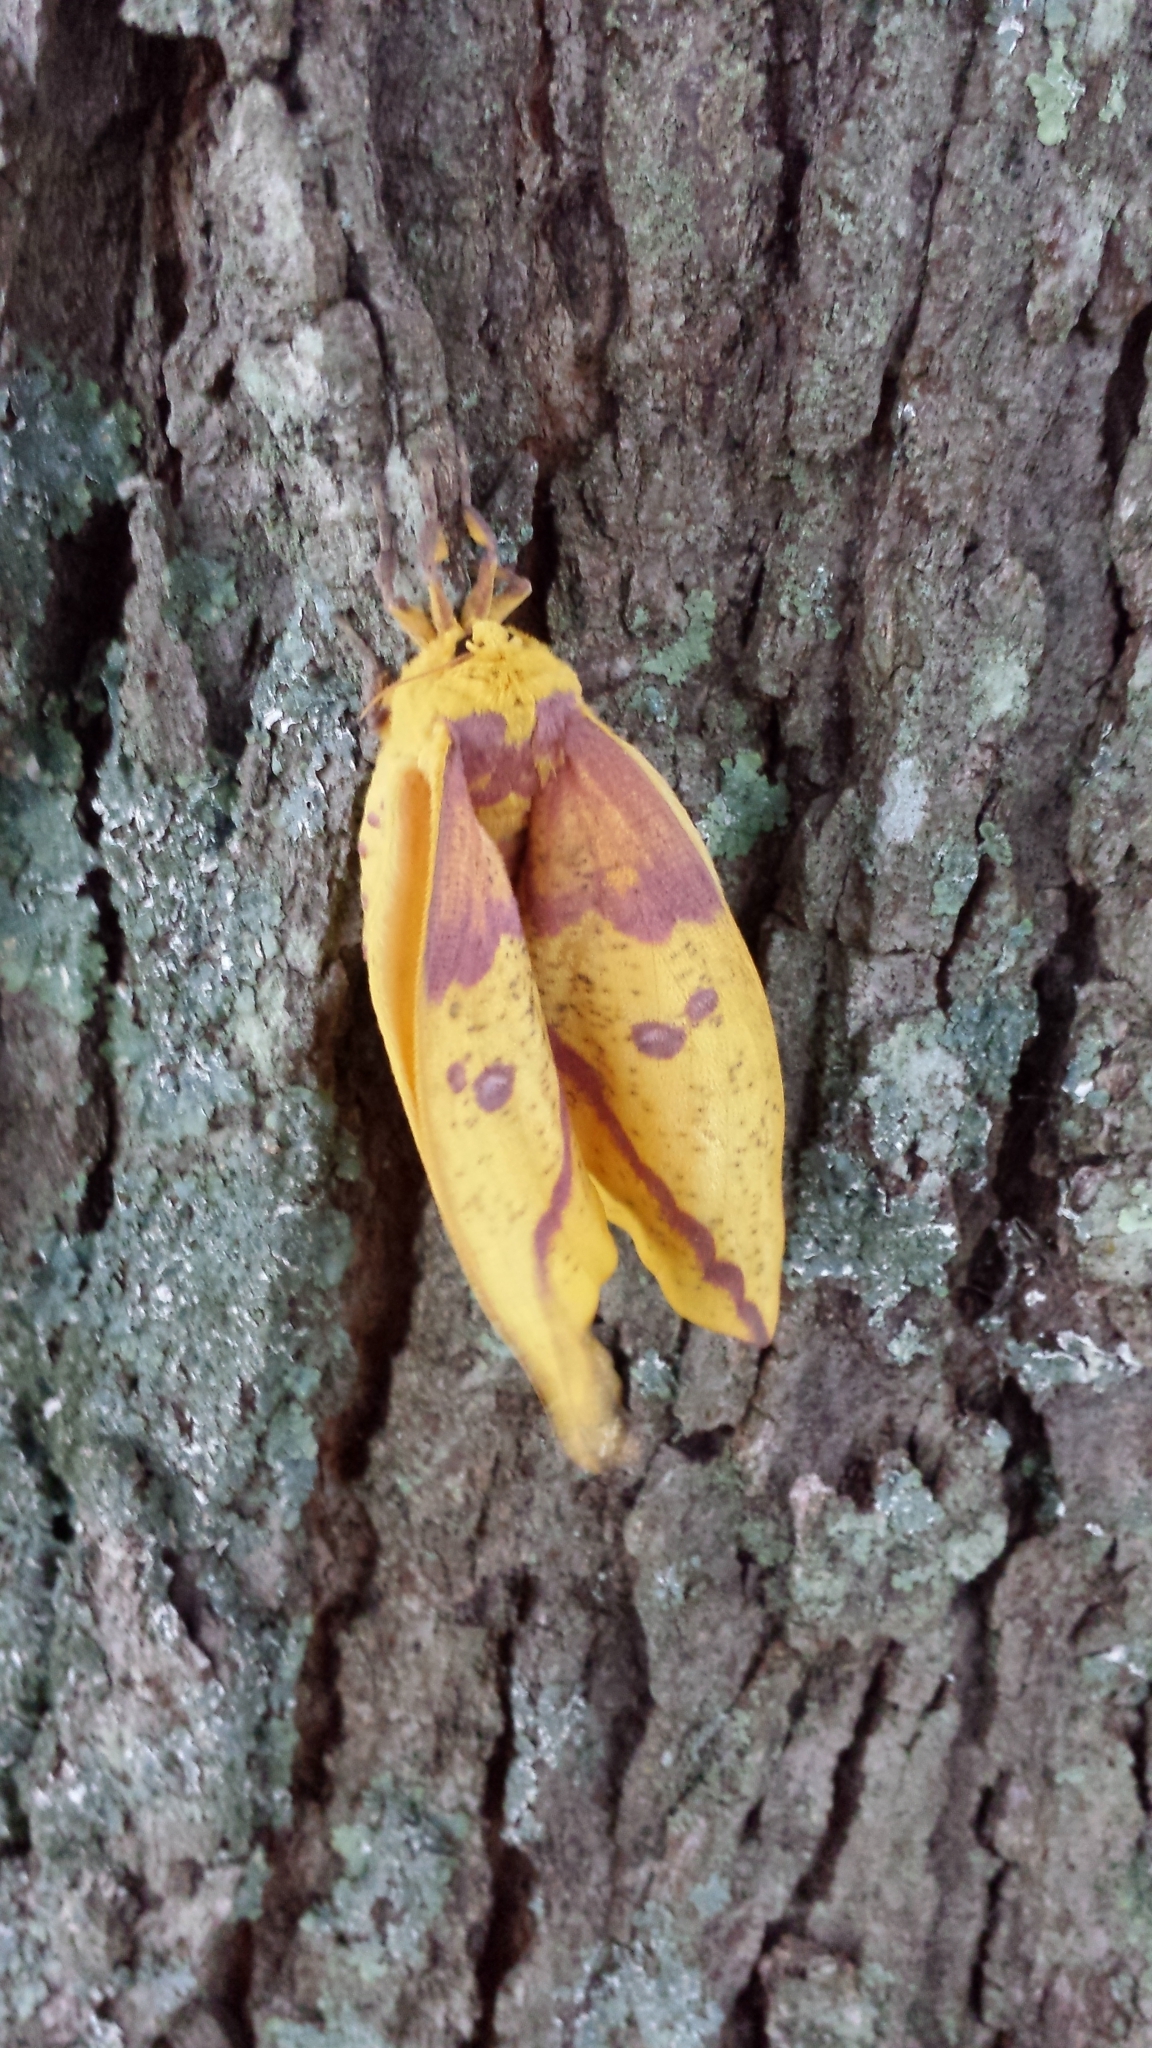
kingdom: Animalia
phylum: Arthropoda
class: Insecta
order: Lepidoptera
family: Saturniidae
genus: Eacles
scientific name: Eacles imperialis
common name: Imperial moth
